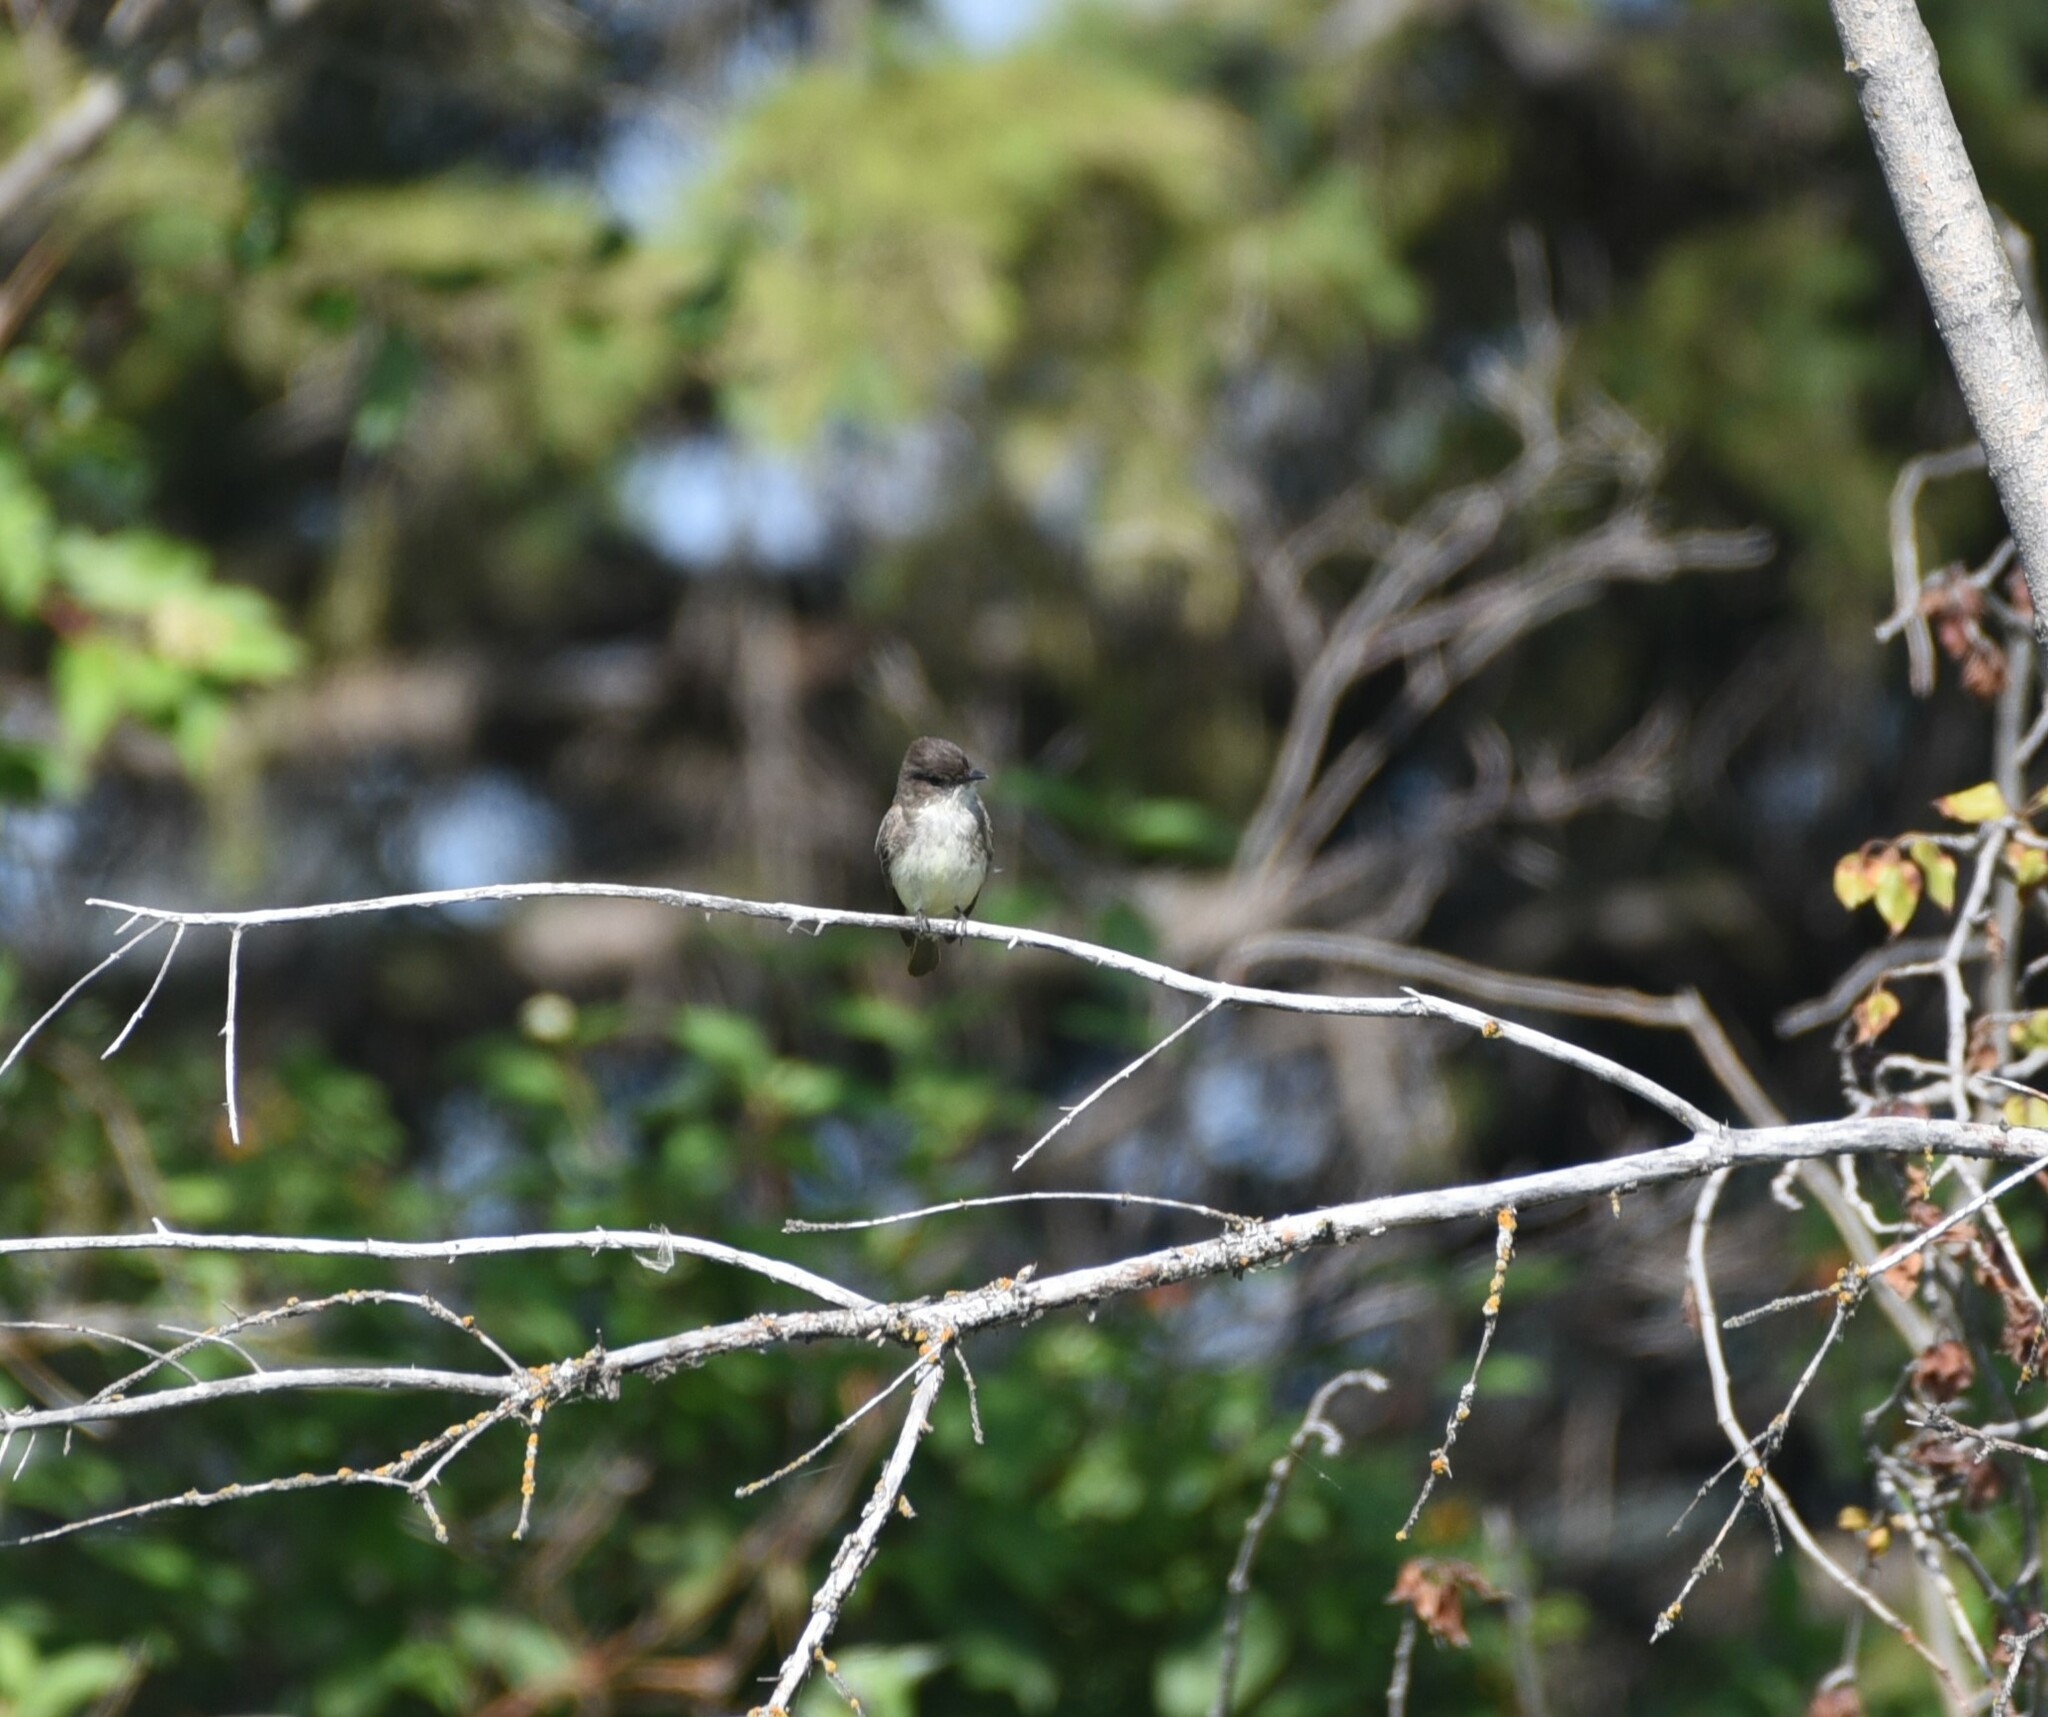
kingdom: Animalia
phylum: Chordata
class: Aves
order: Passeriformes
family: Tyrannidae
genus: Sayornis
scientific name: Sayornis phoebe
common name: Eastern phoebe
